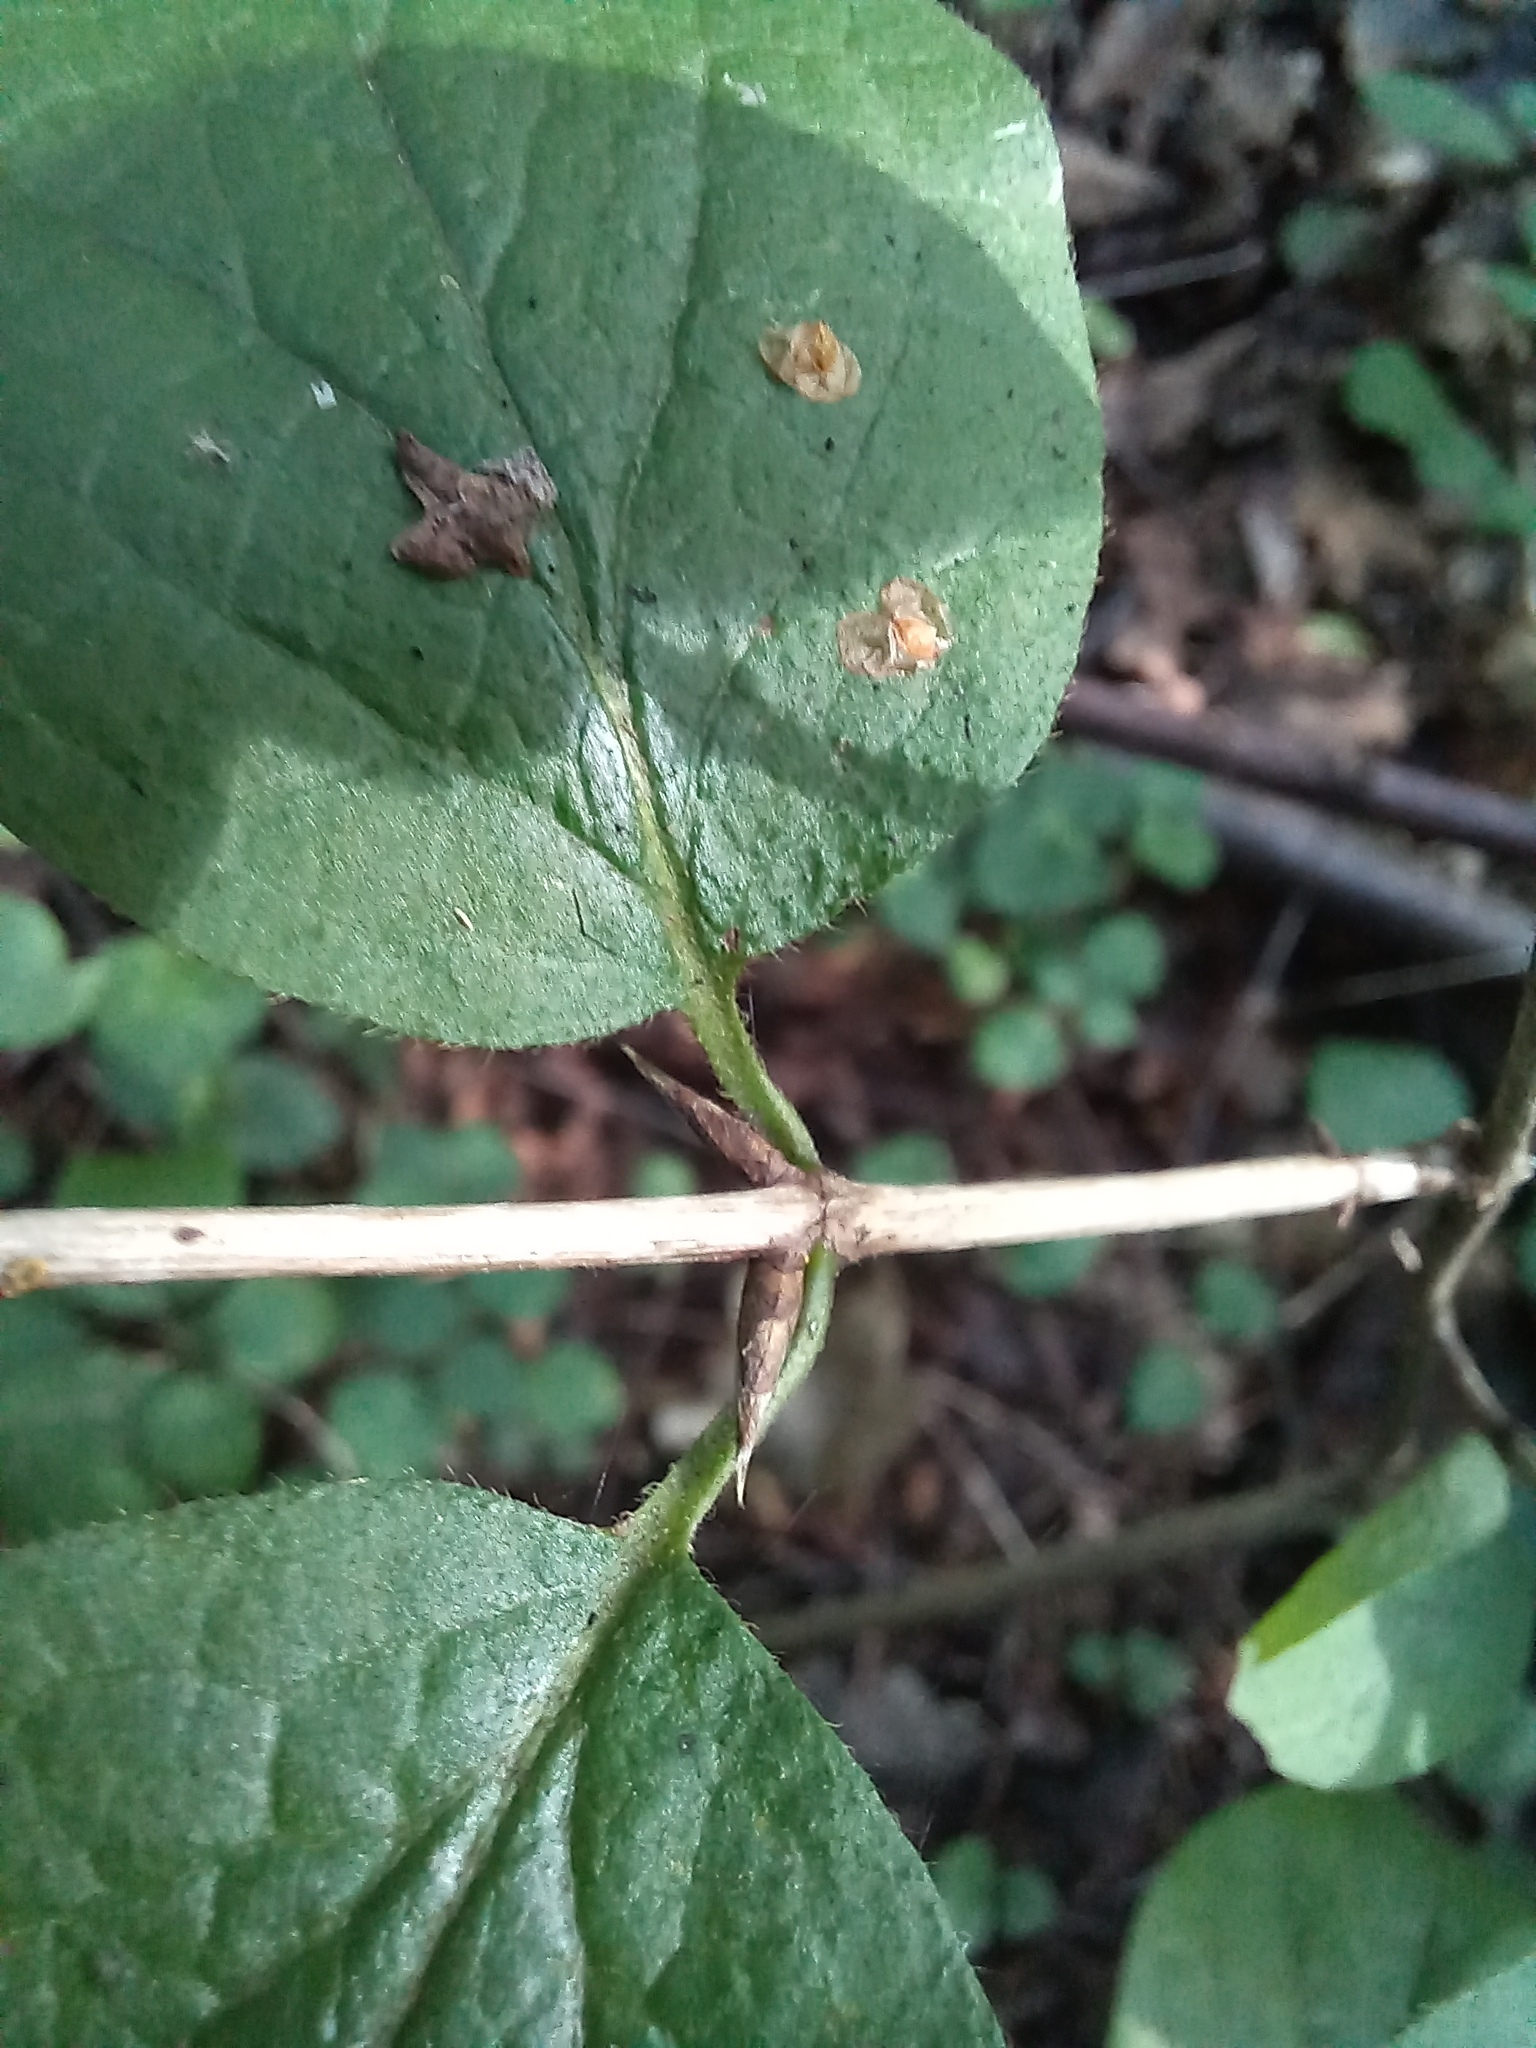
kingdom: Plantae
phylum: Tracheophyta
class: Magnoliopsida
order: Dipsacales
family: Caprifoliaceae
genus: Lonicera
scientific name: Lonicera xylosteum
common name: Fly honeysuckle
